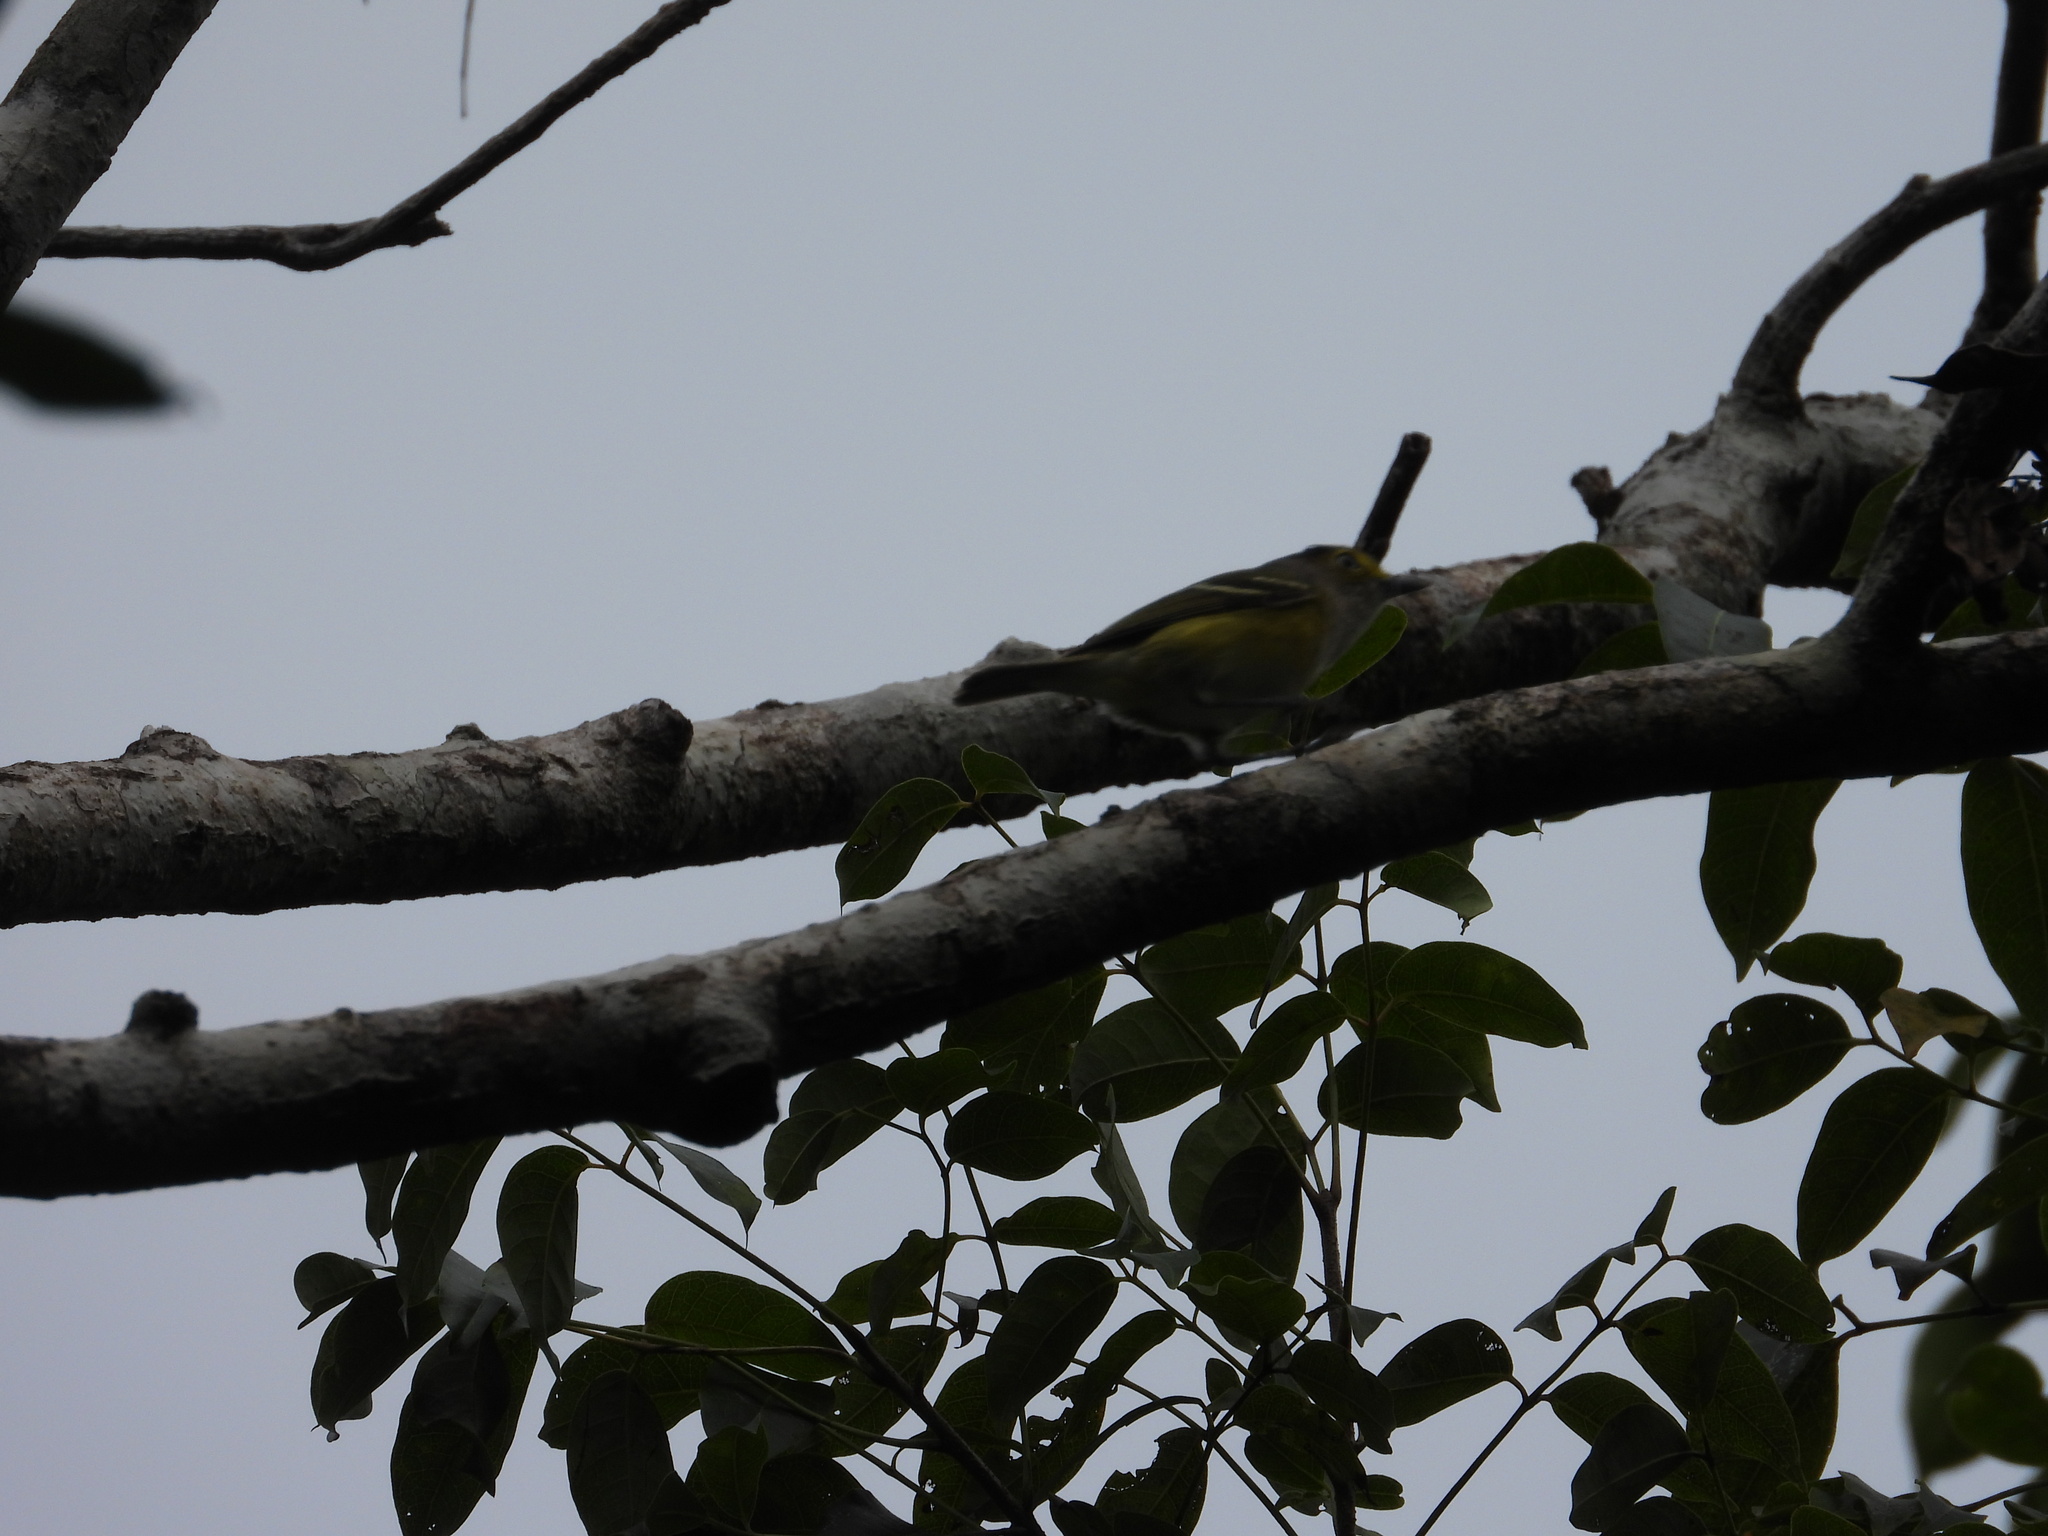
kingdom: Animalia
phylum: Chordata
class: Aves
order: Passeriformes
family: Vireonidae
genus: Vireo
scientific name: Vireo griseus
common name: White-eyed vireo
